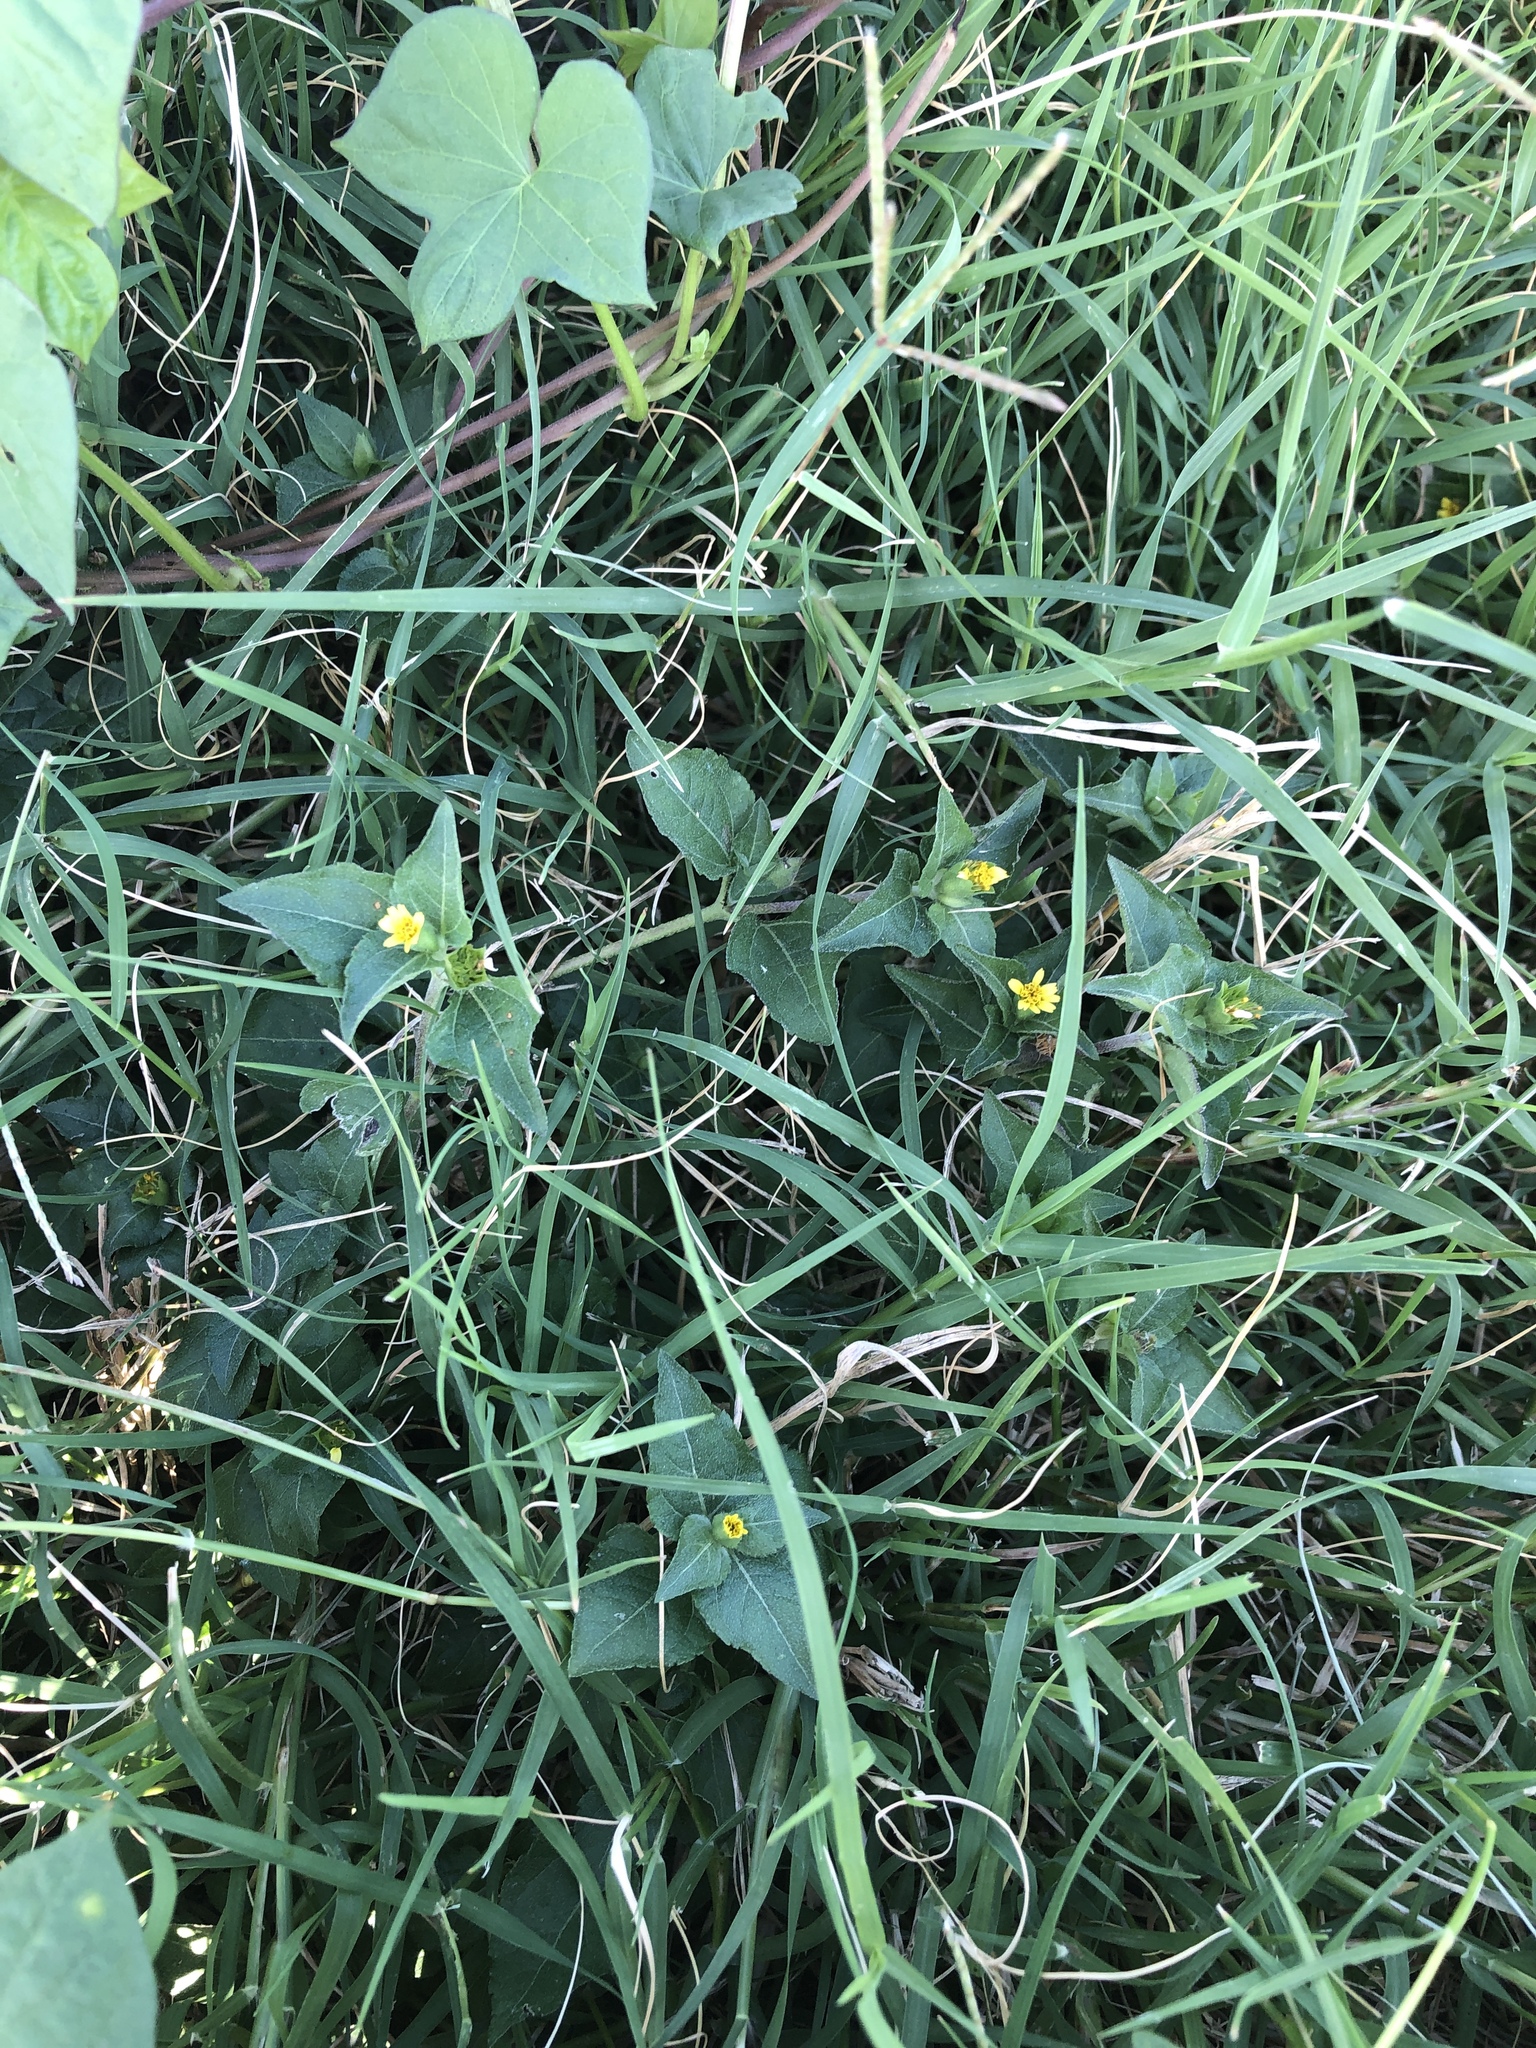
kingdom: Plantae
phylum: Tracheophyta
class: Magnoliopsida
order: Asterales
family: Asteraceae
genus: Calyptocarpus
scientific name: Calyptocarpus vialis
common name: Straggler daisy
